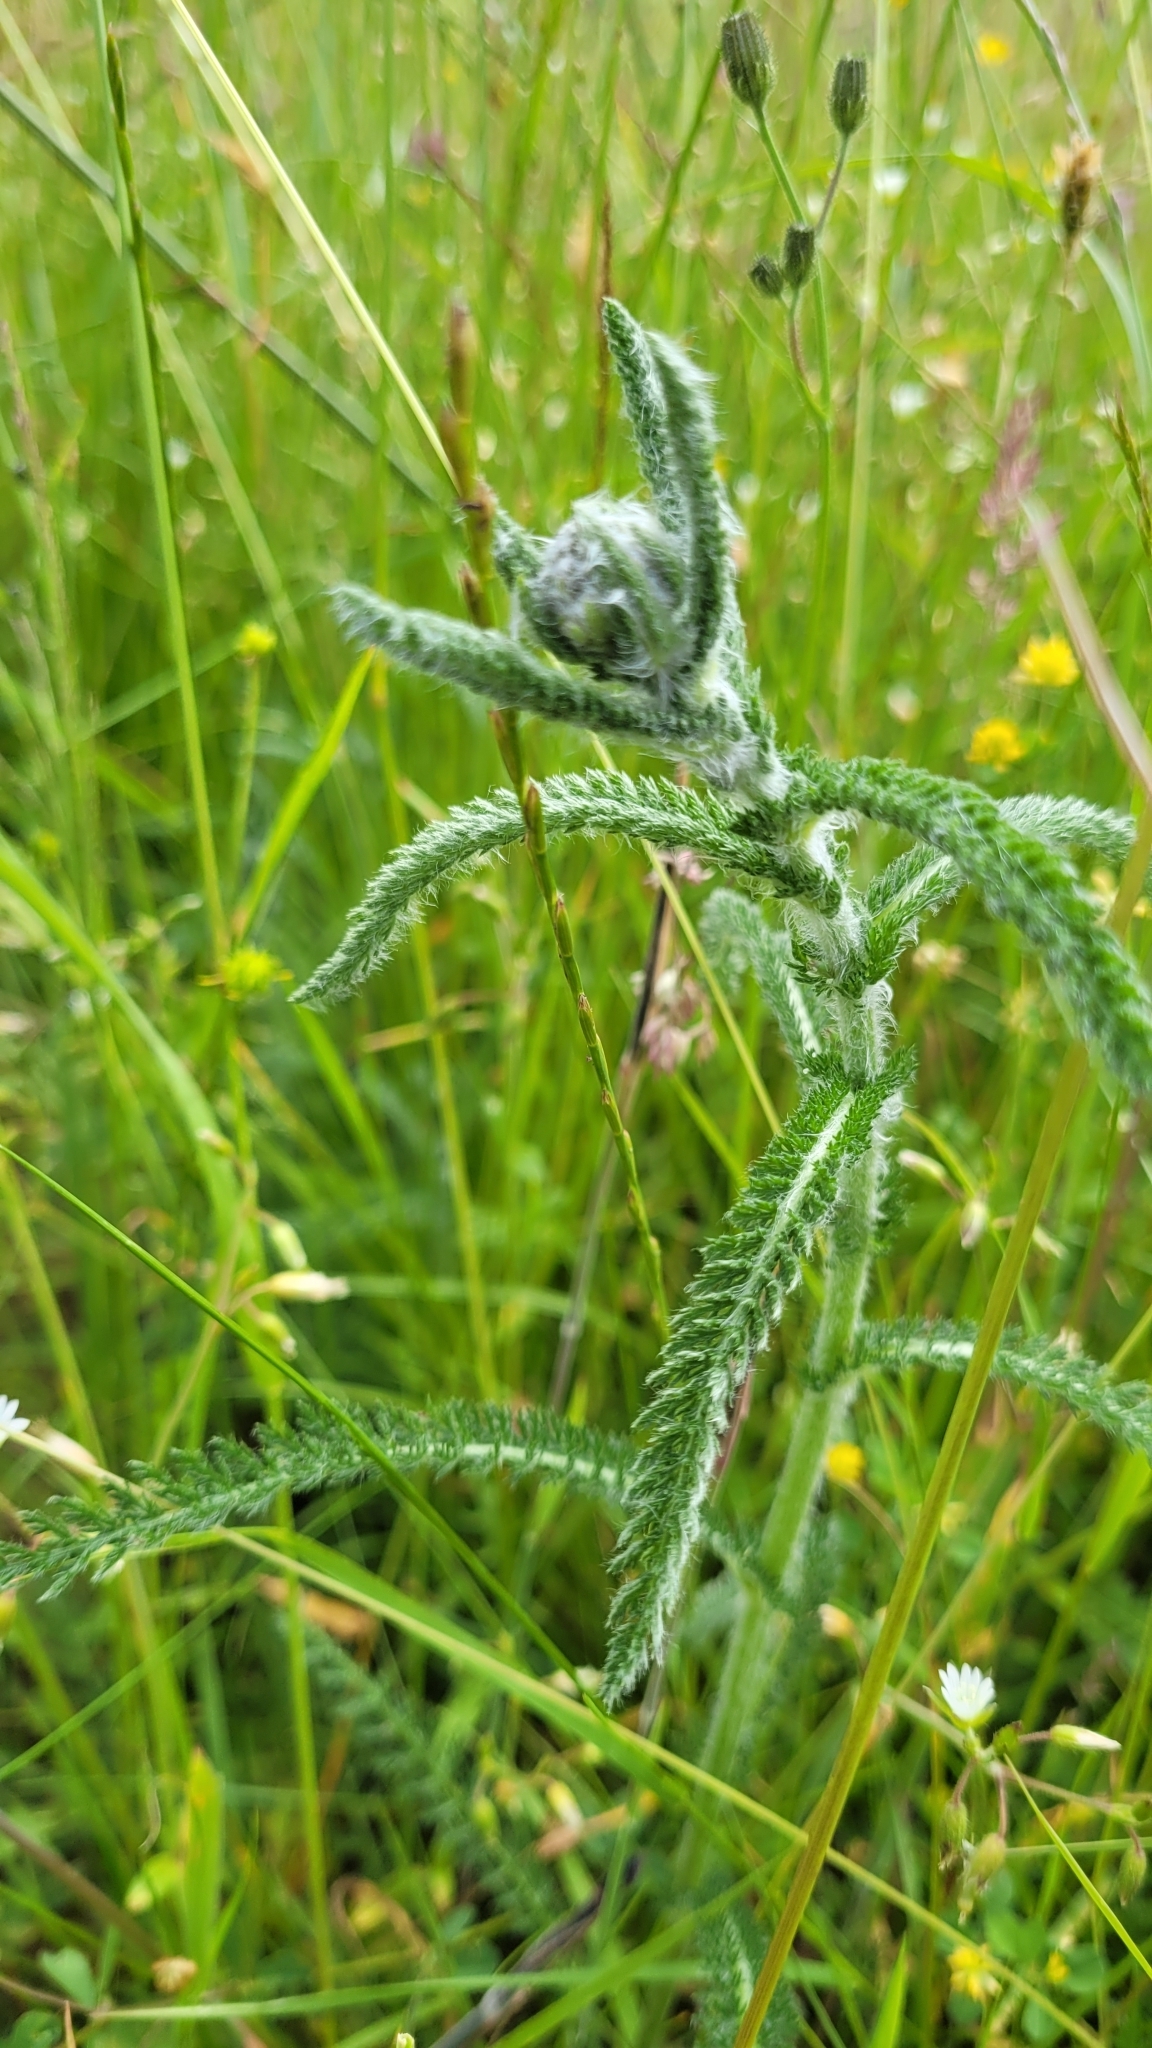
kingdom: Plantae
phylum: Tracheophyta
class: Magnoliopsida
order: Asterales
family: Asteraceae
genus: Achillea
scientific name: Achillea millefolium
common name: Yarrow
